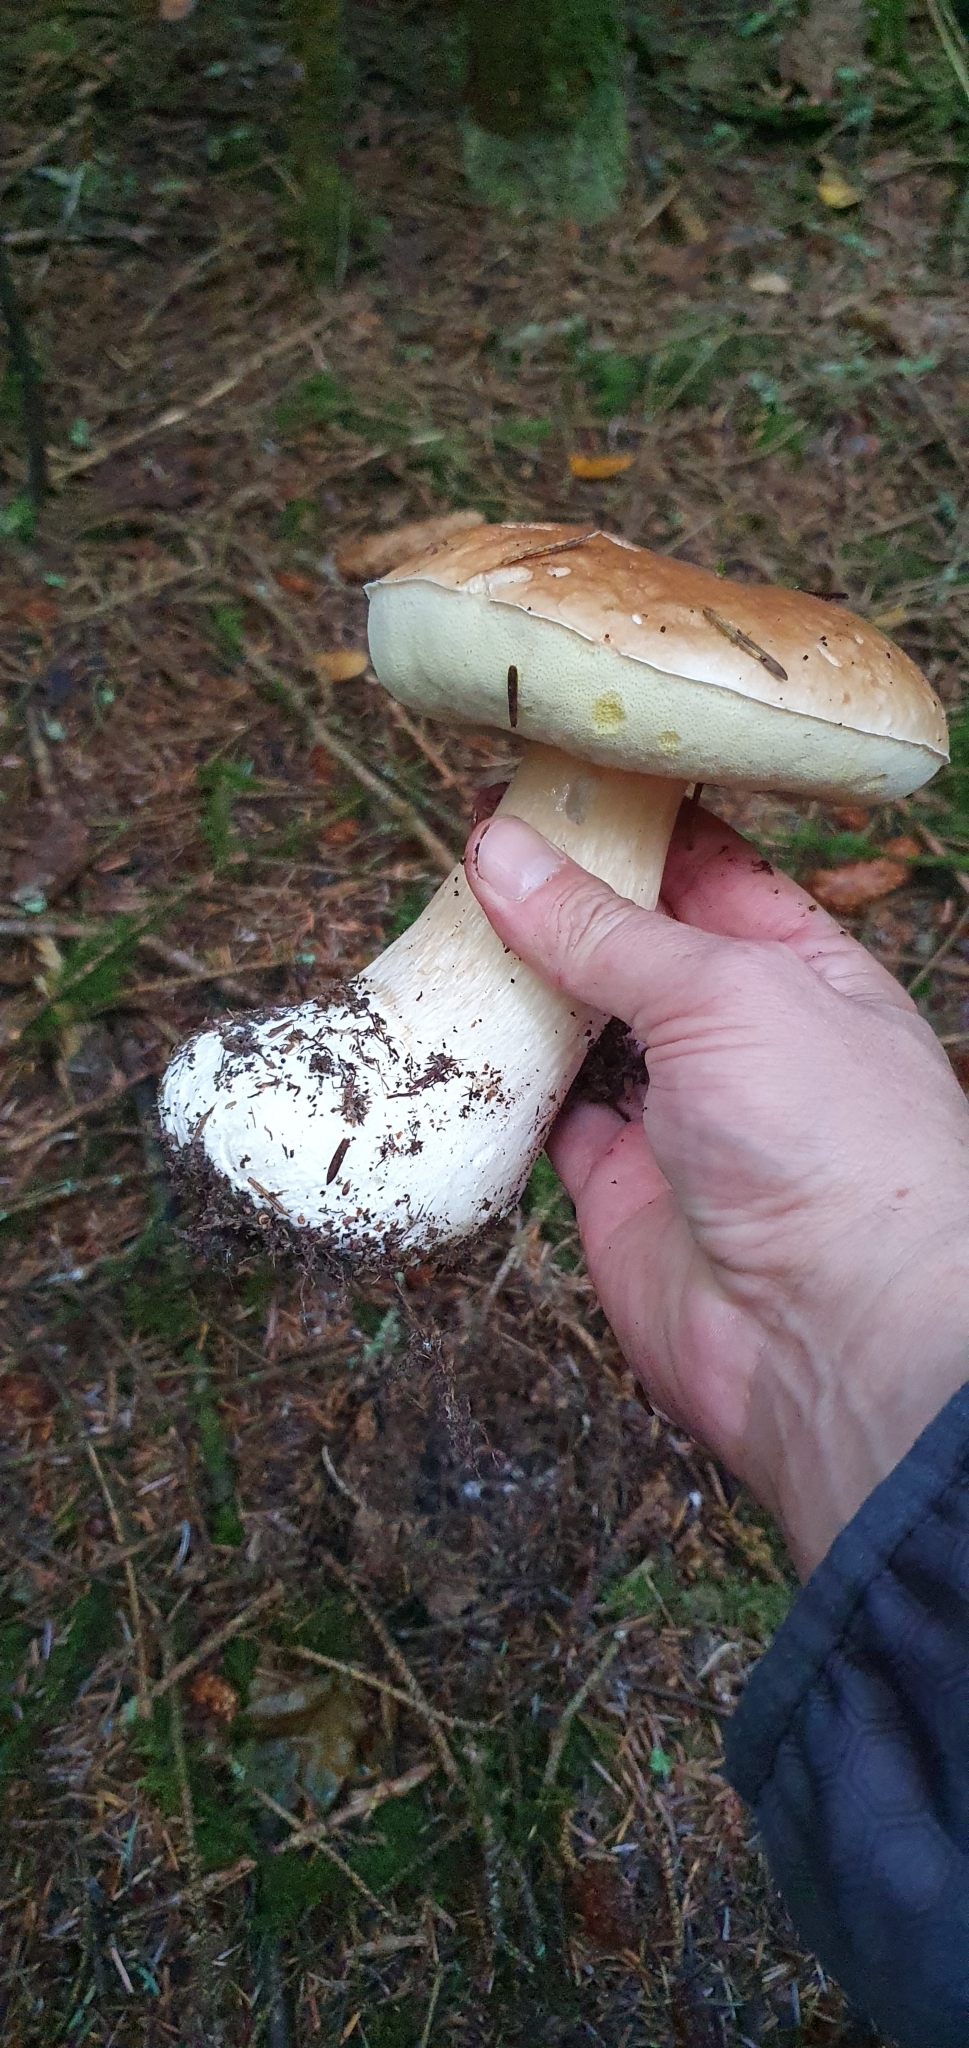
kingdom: Fungi
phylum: Basidiomycota
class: Agaricomycetes
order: Boletales
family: Boletaceae
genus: Boletus
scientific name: Boletus edulis
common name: Cep
